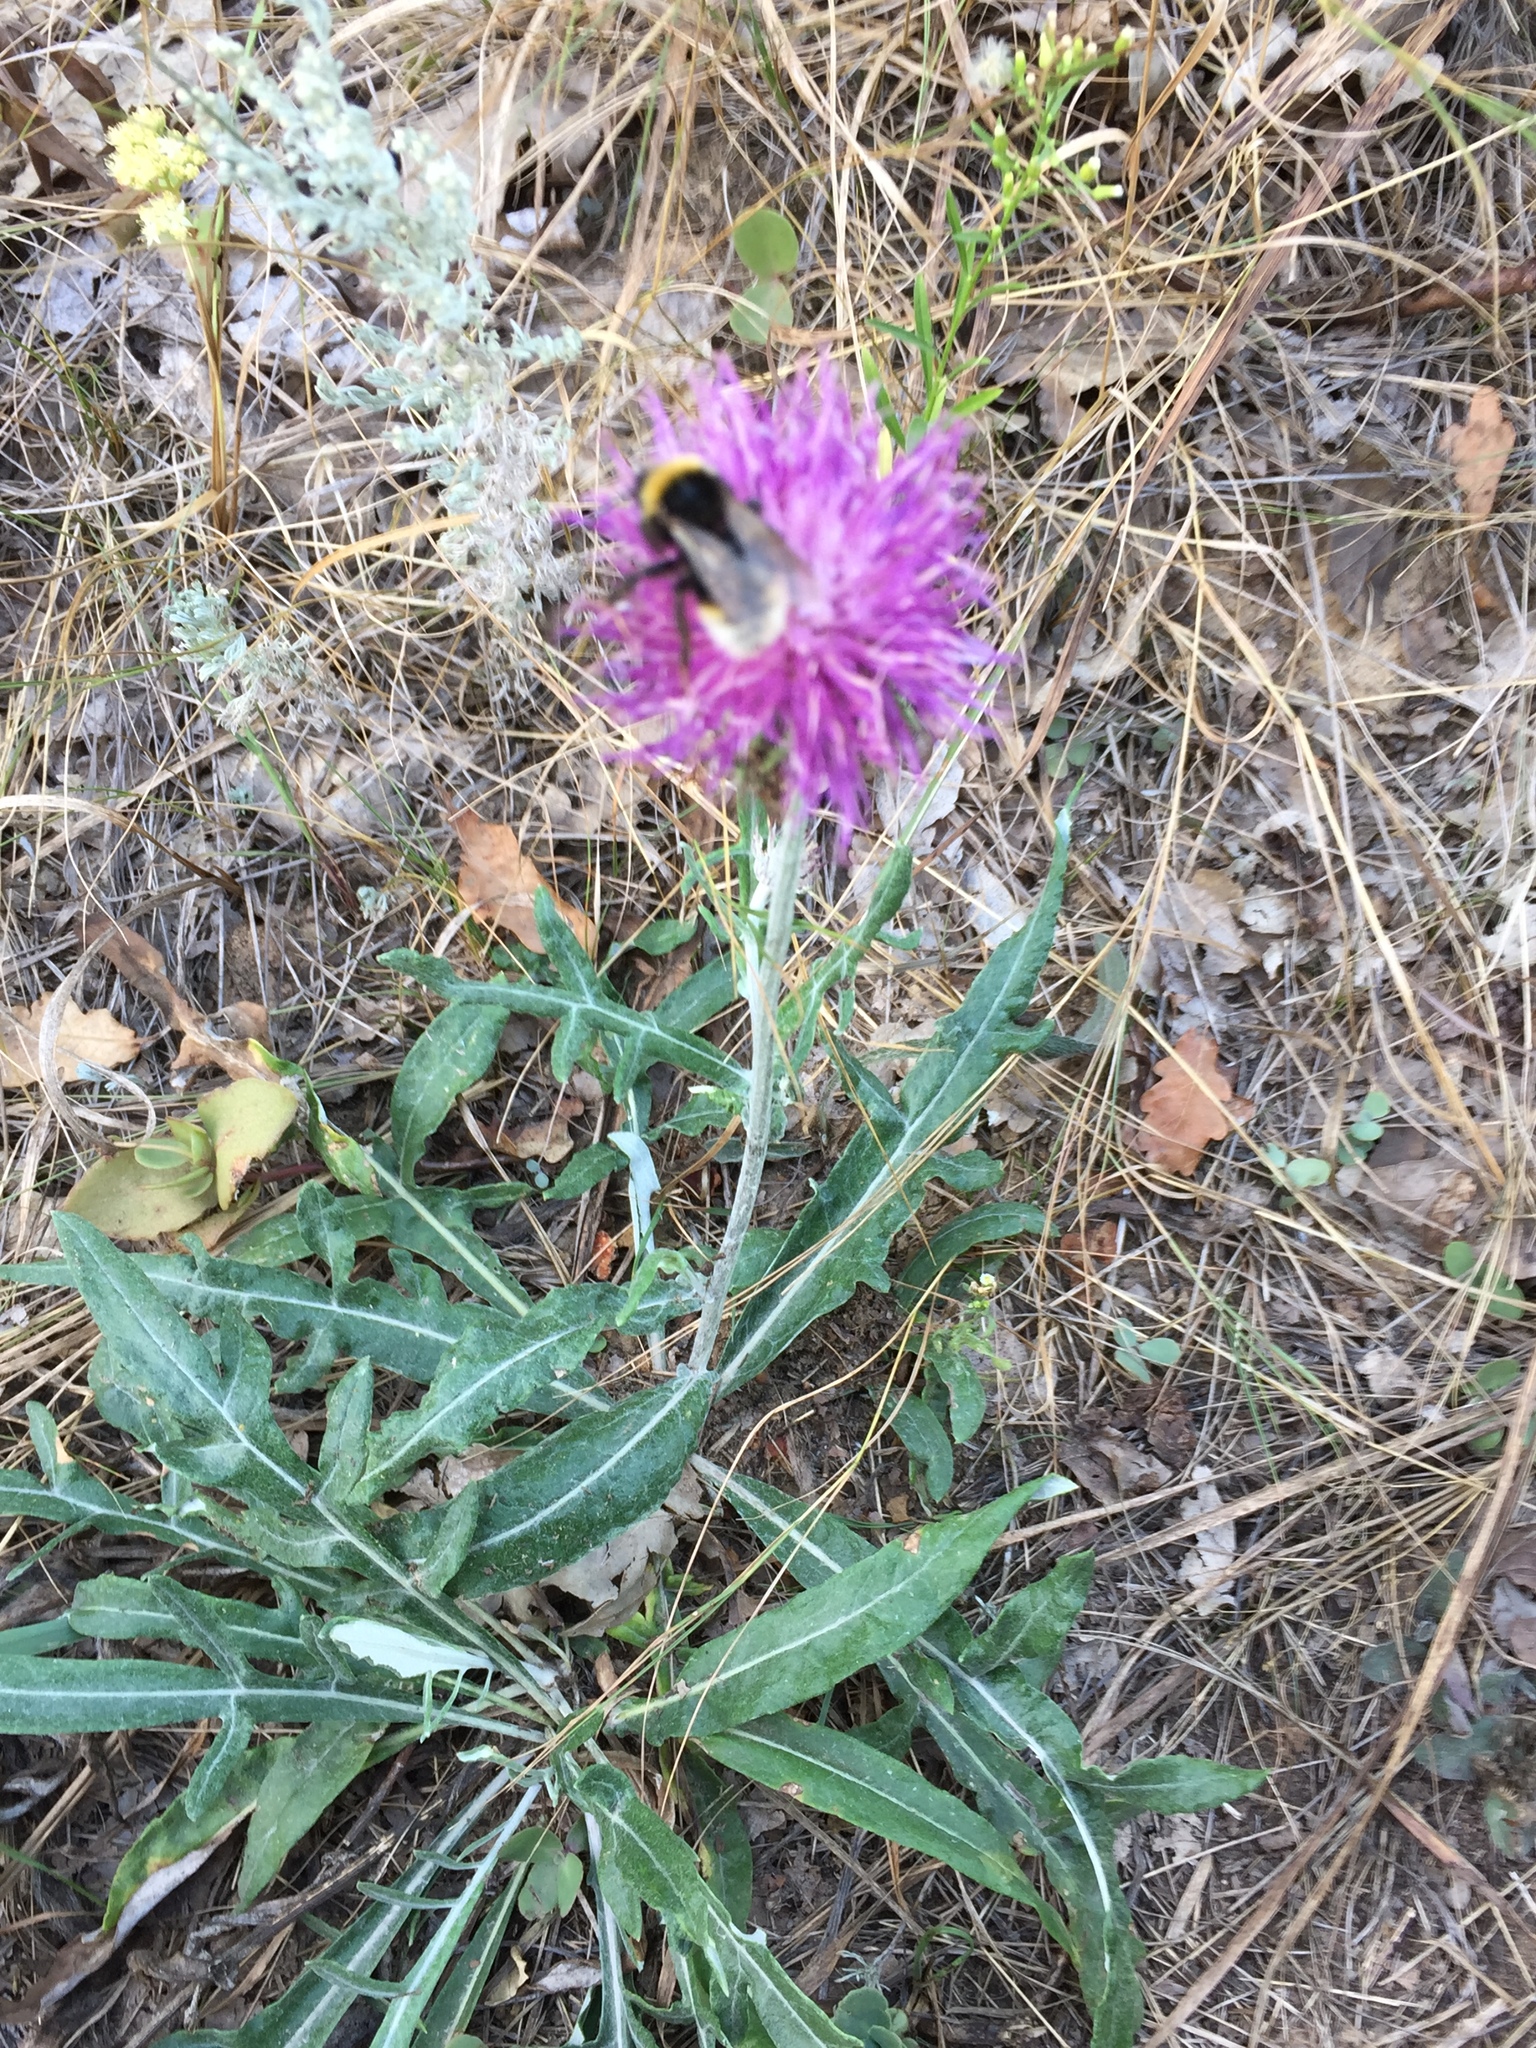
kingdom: Plantae
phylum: Tracheophyta
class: Magnoliopsida
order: Asterales
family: Asteraceae
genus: Jurinea
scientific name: Jurinea cyanoides
